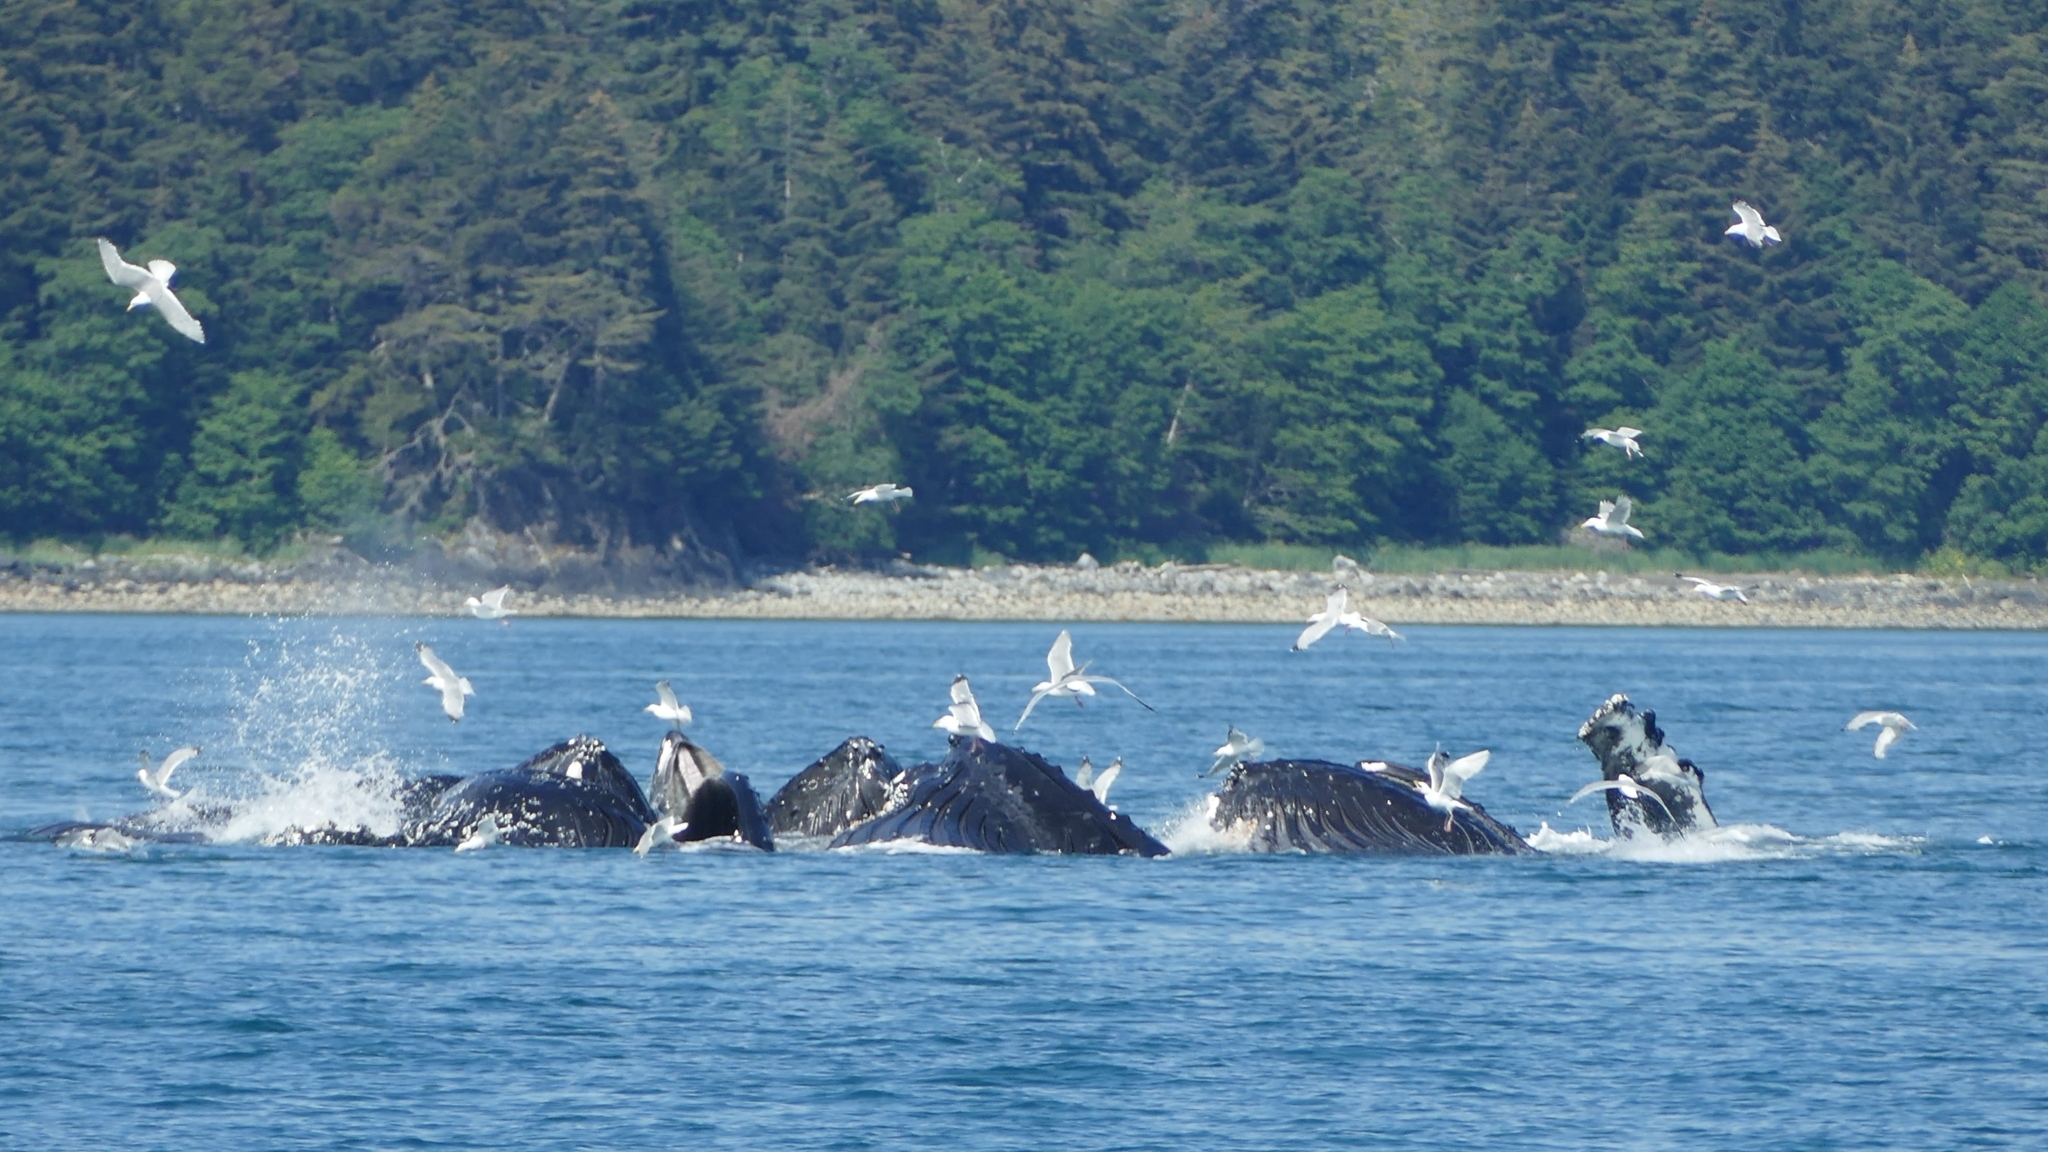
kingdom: Animalia
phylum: Chordata
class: Mammalia
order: Cetacea
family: Balaenopteridae
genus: Megaptera
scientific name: Megaptera novaeangliae
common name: Humpback whale
